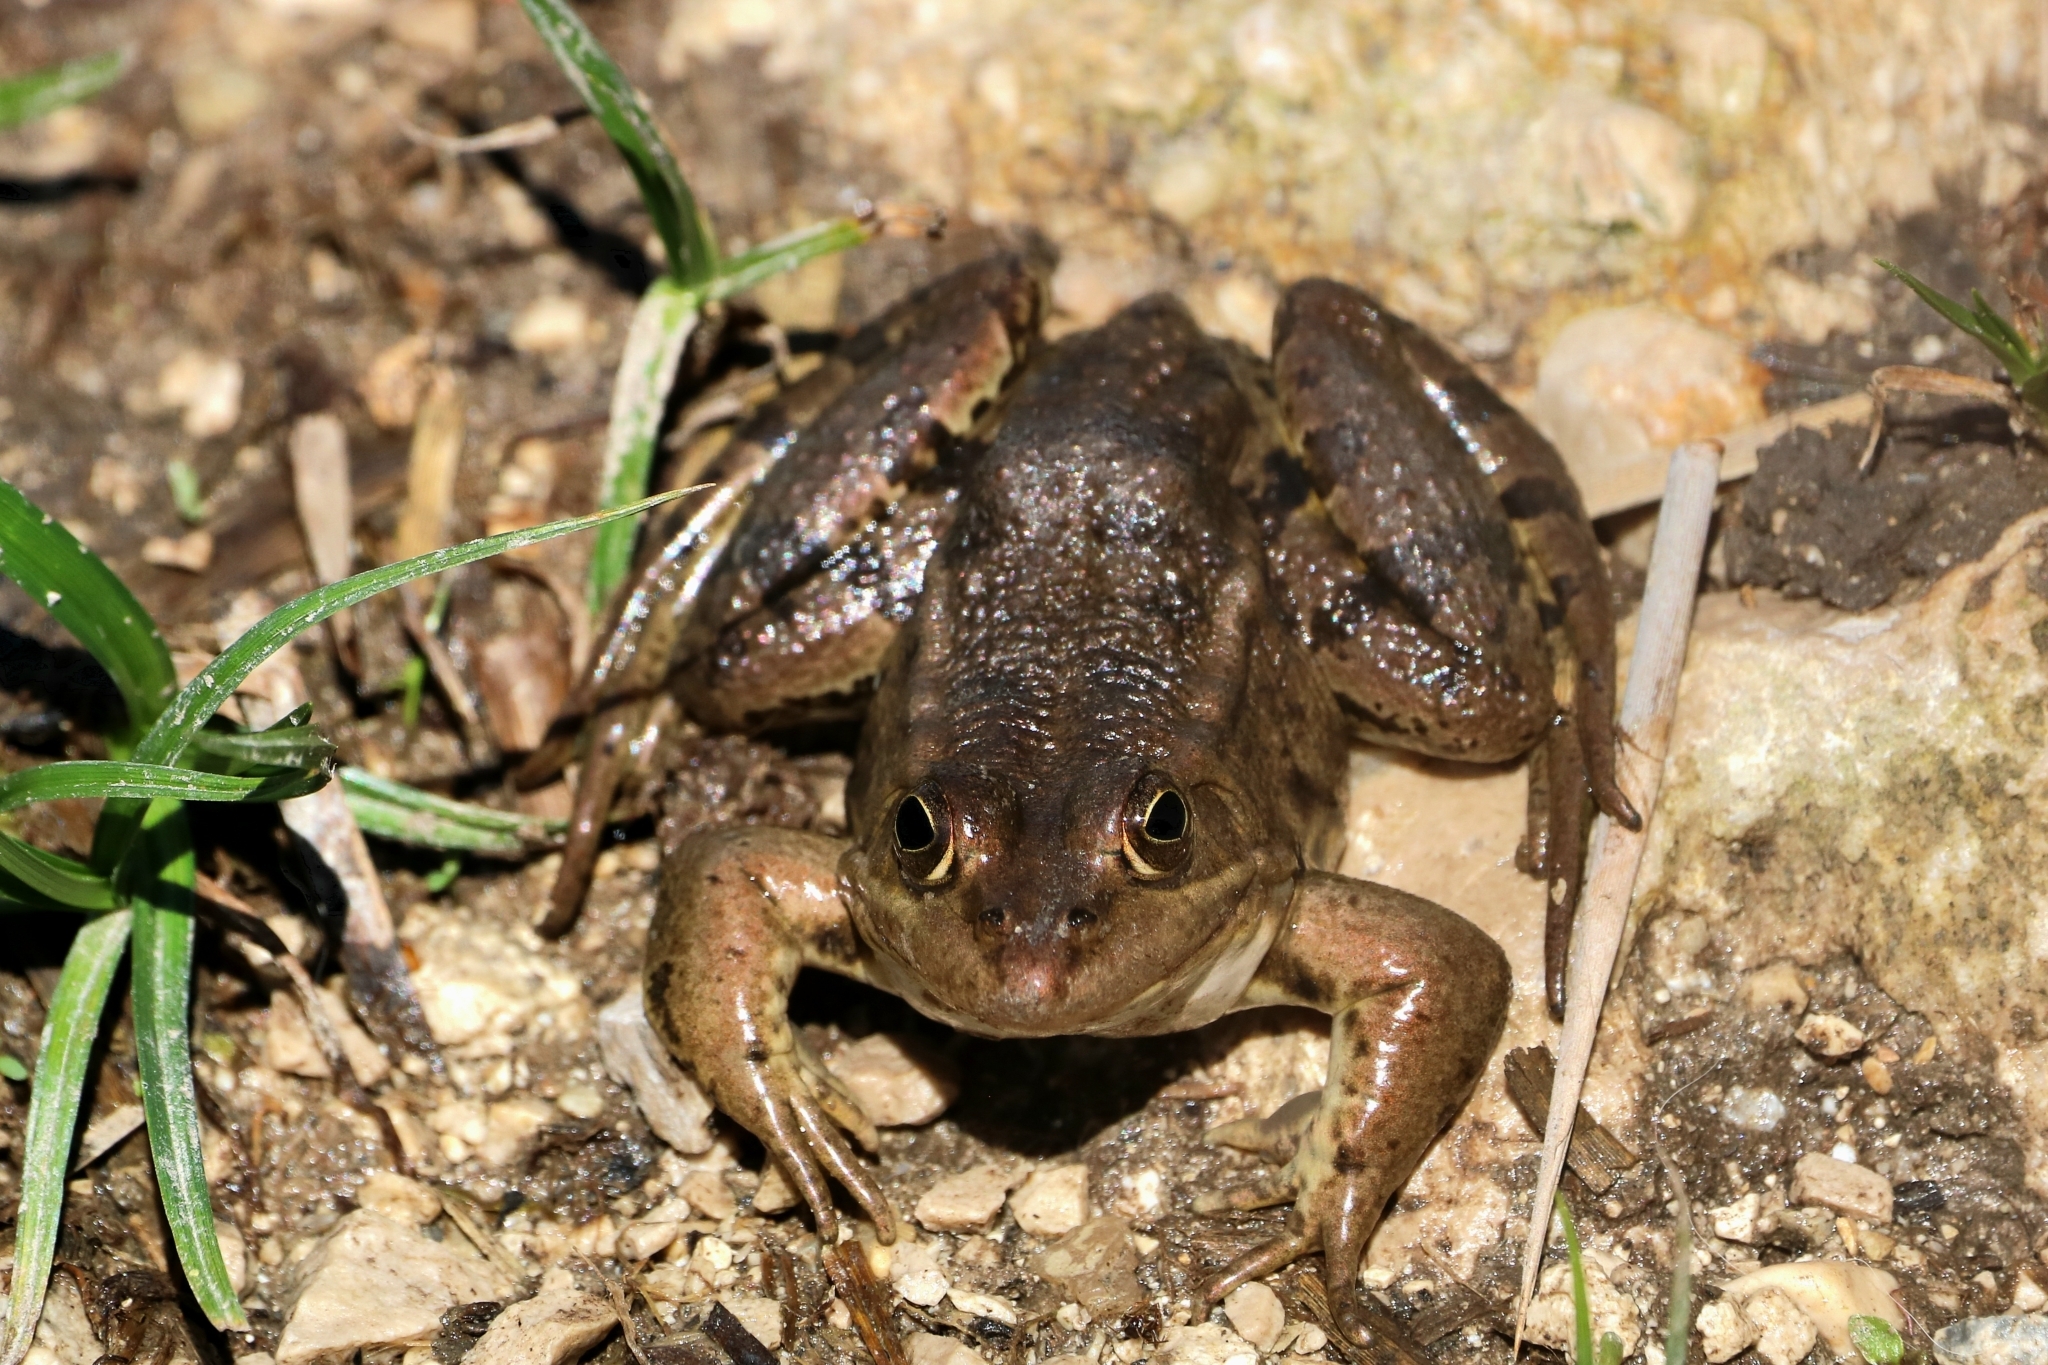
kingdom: Animalia
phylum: Chordata
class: Amphibia
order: Anura
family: Ranidae
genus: Pelophylax
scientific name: Pelophylax
